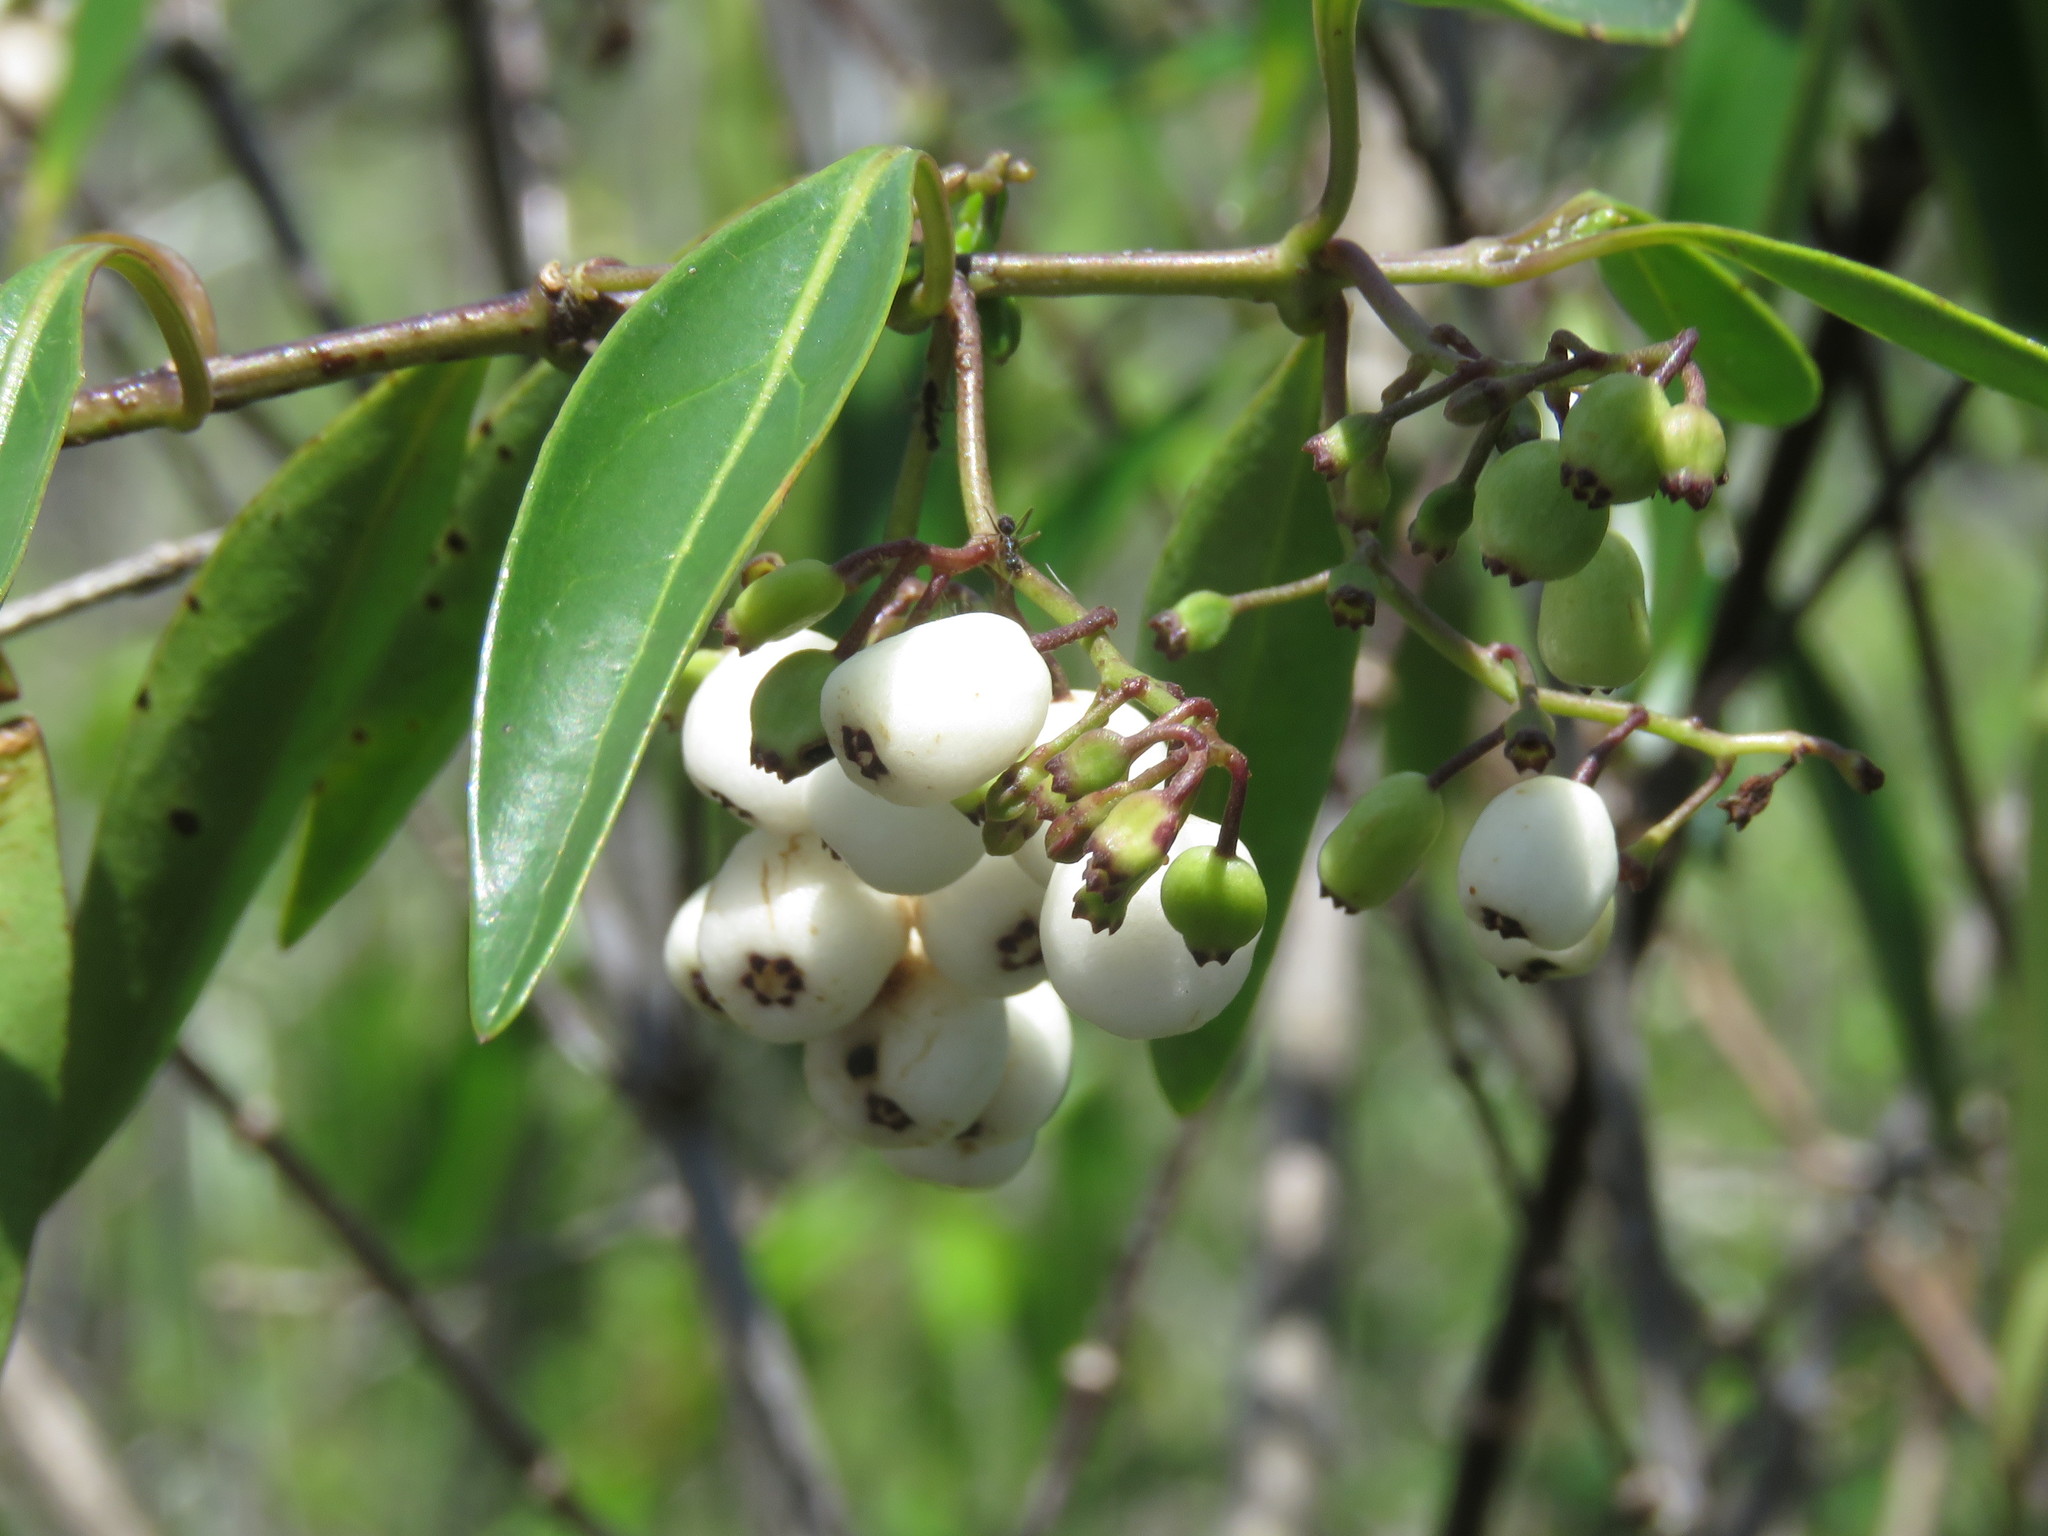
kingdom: Plantae
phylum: Tracheophyta
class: Magnoliopsida
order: Gentianales
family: Rubiaceae
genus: Chiococca
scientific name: Chiococca alba
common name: Snowberry
